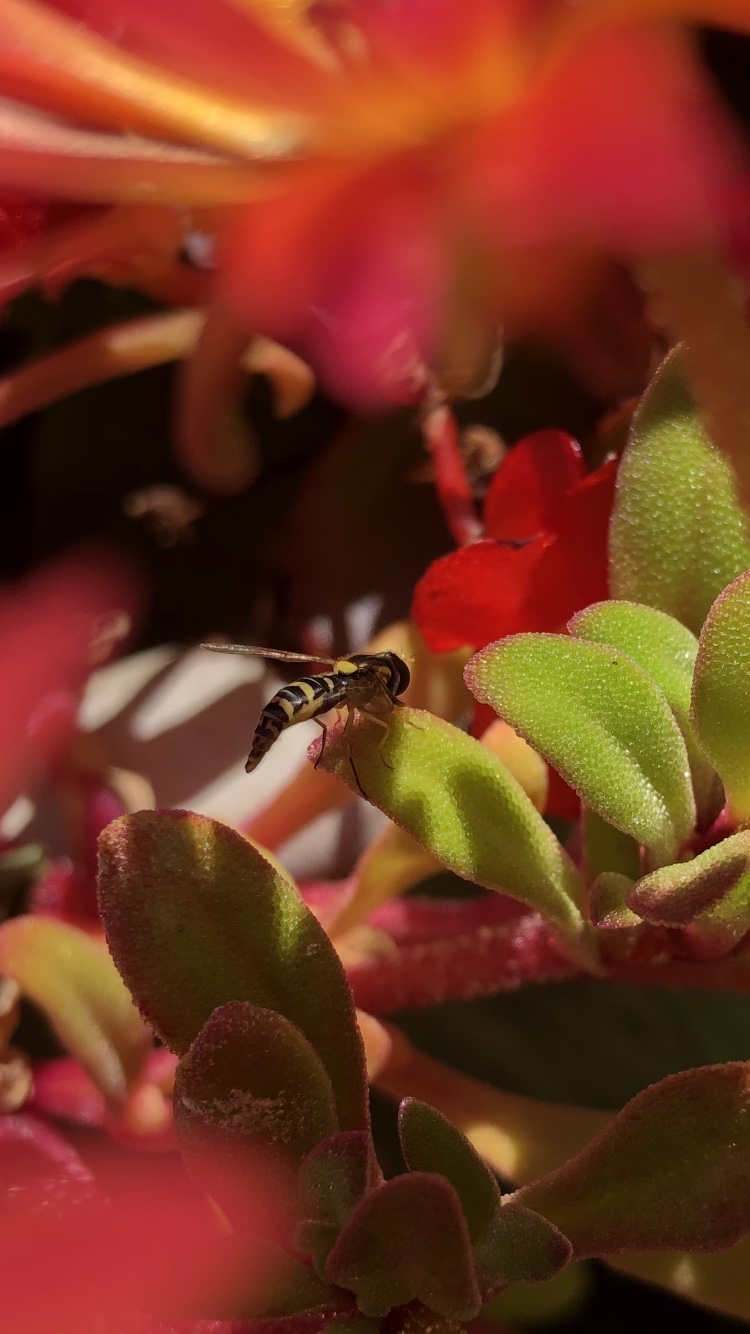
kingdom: Animalia
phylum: Arthropoda
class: Insecta
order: Diptera
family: Syrphidae
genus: Sphaerophoria
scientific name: Sphaerophoria
